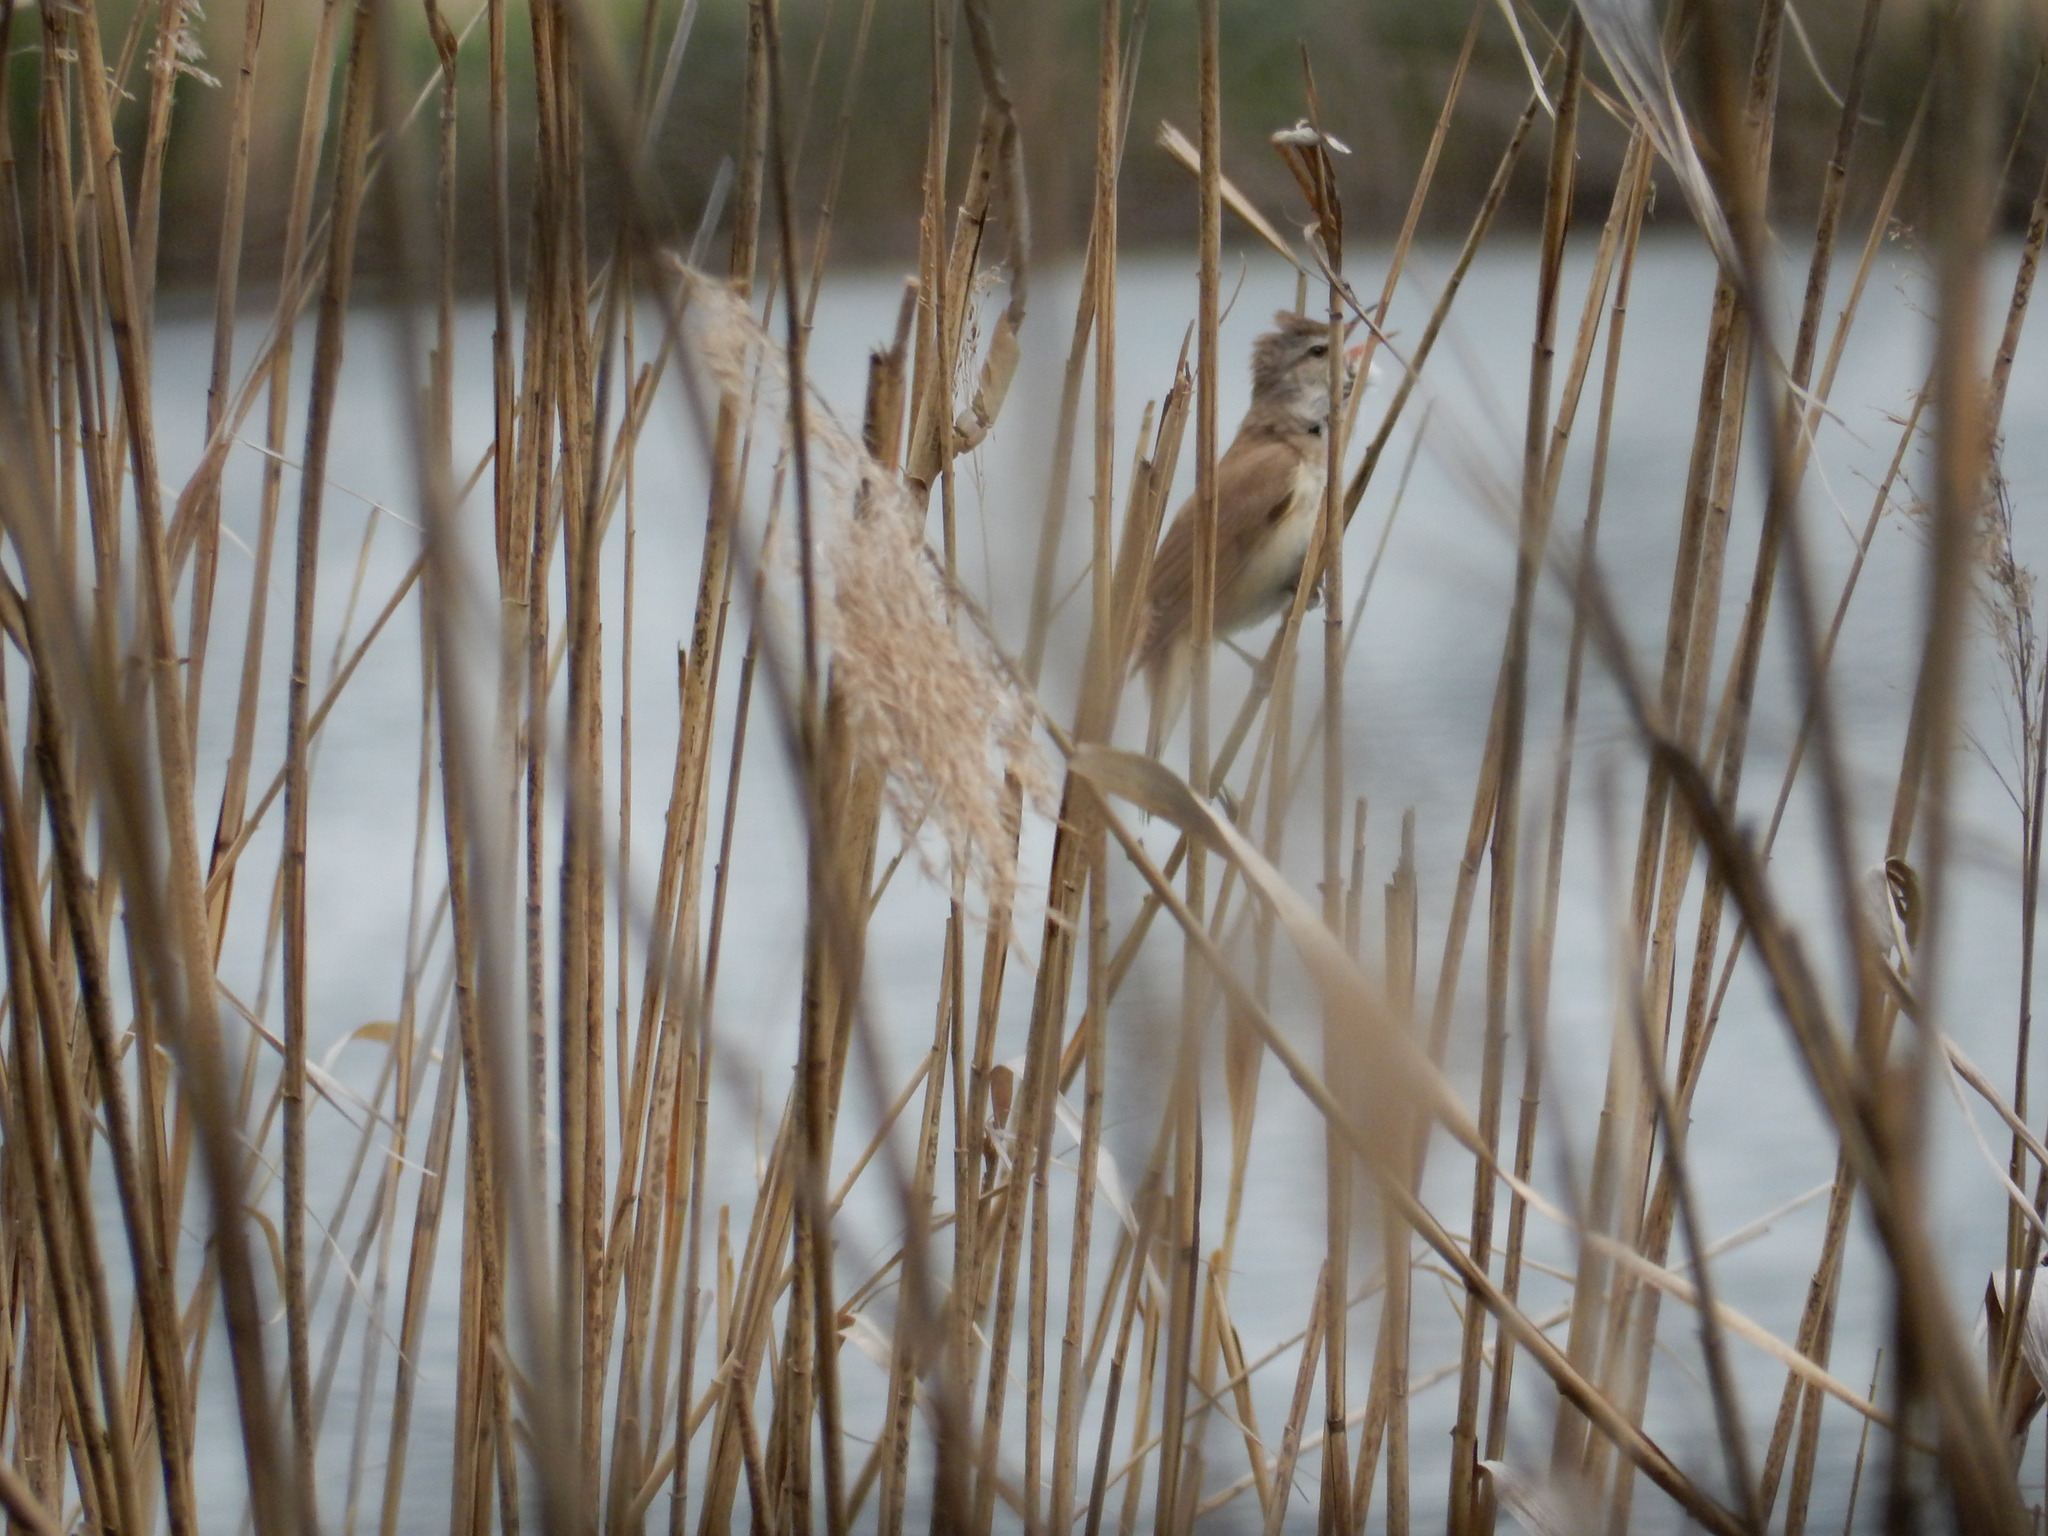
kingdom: Animalia
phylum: Chordata
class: Aves
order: Passeriformes
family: Acrocephalidae
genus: Acrocephalus
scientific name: Acrocephalus arundinaceus
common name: Great reed warbler
